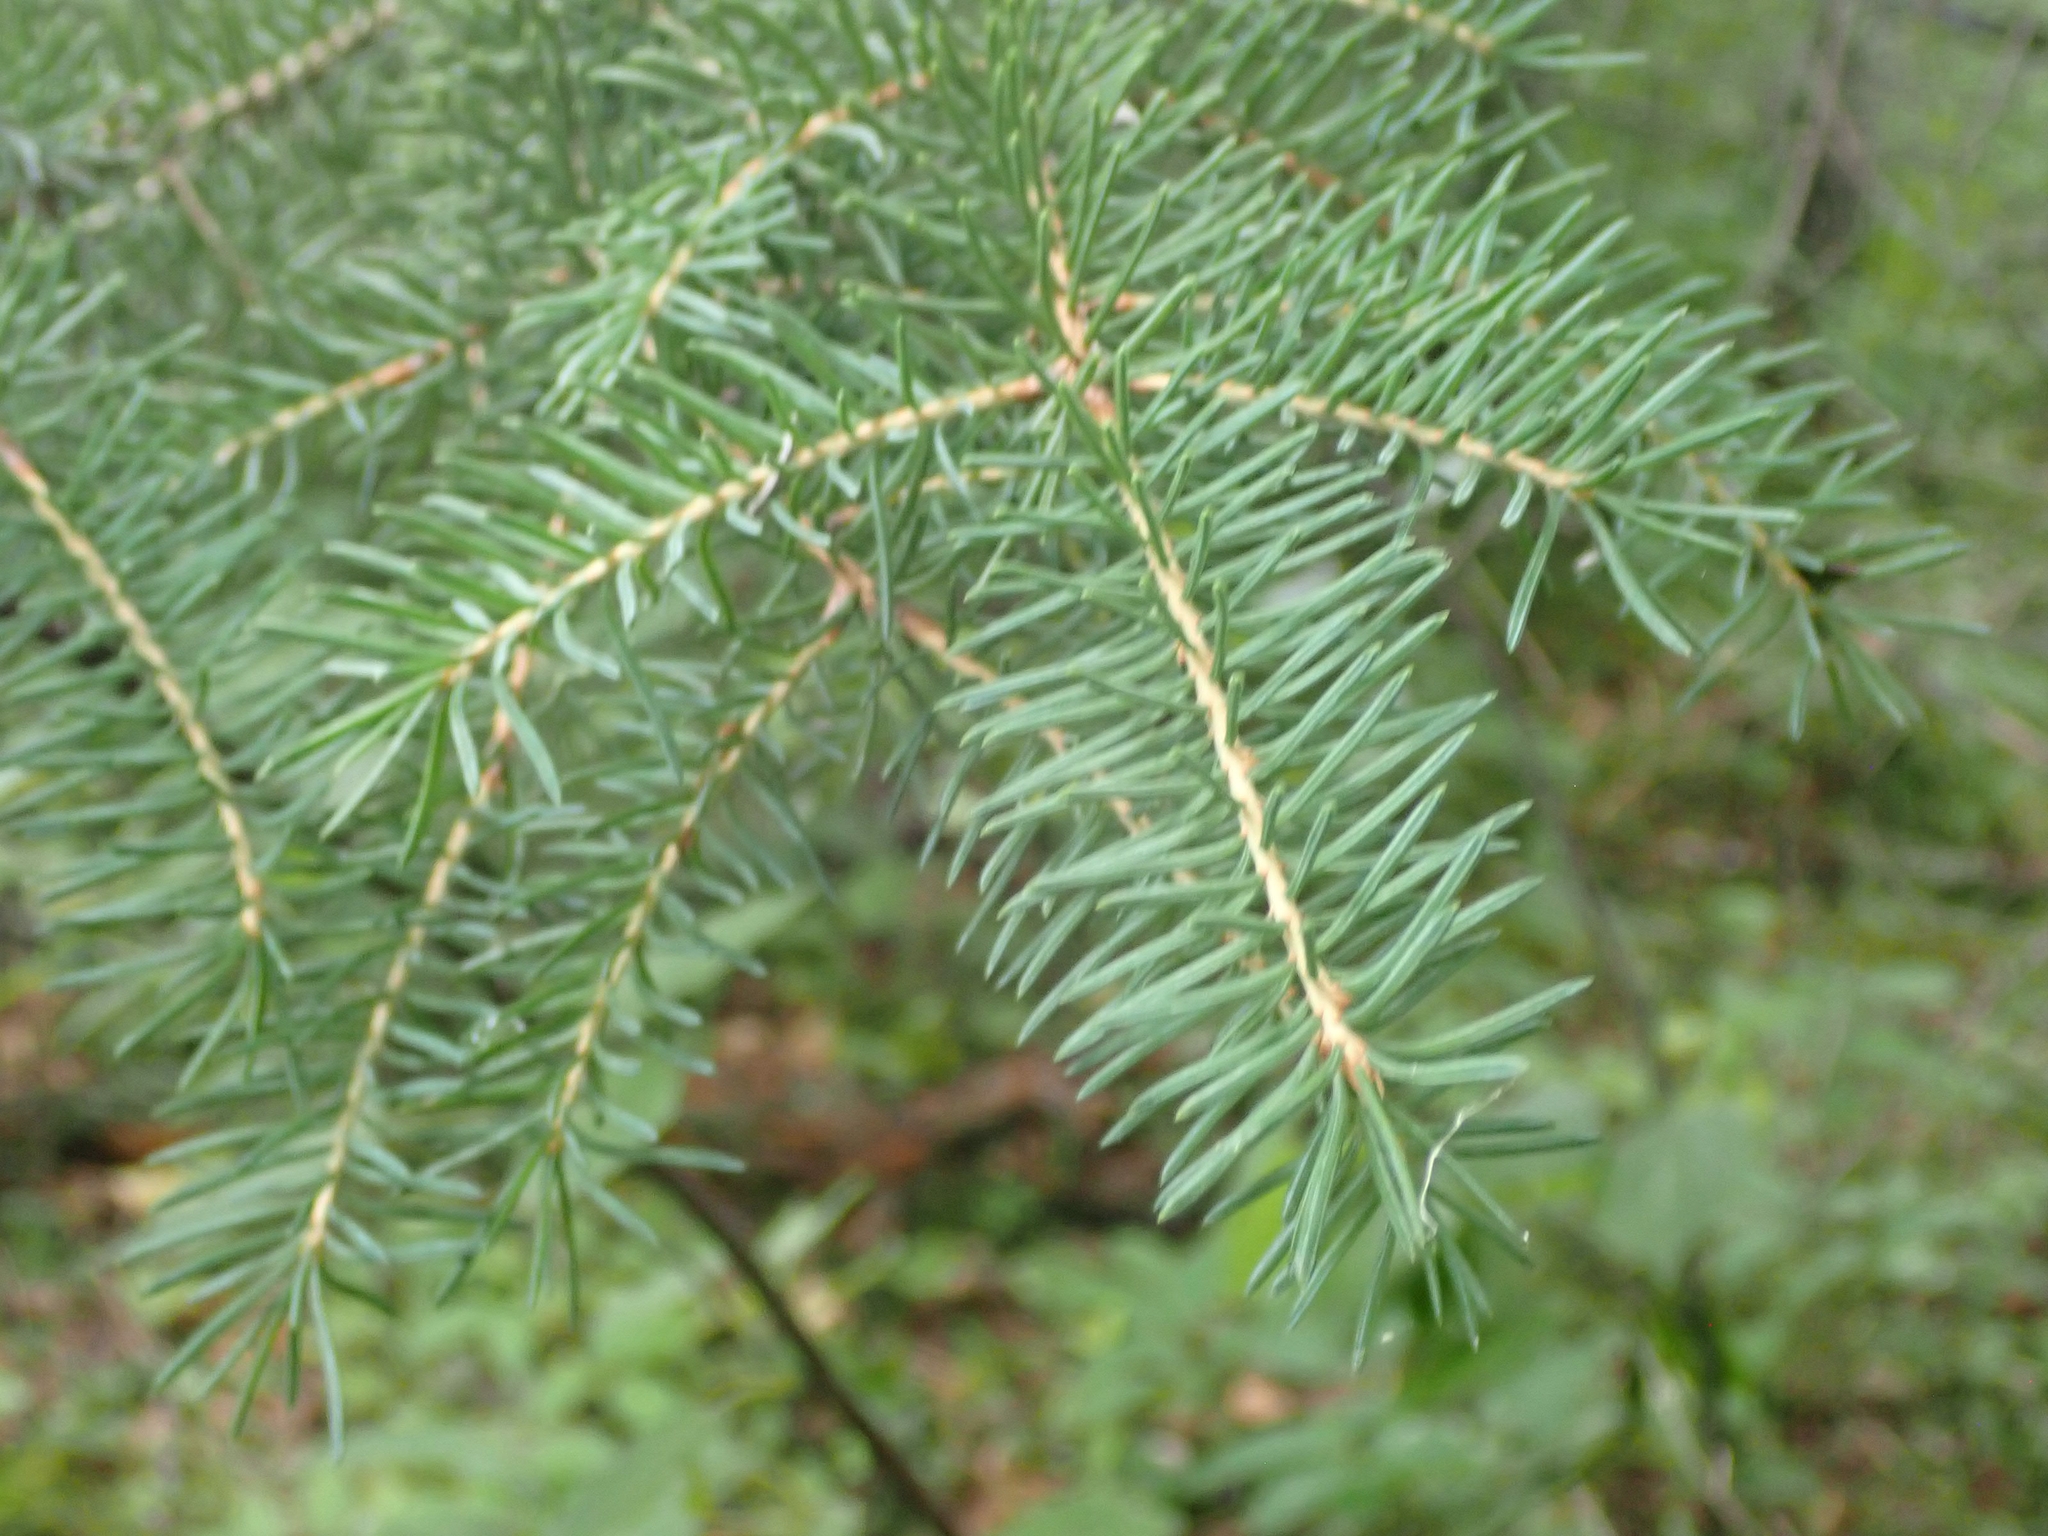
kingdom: Plantae
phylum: Tracheophyta
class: Pinopsida
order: Pinales
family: Pinaceae
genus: Picea
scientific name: Picea glauca
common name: White spruce
